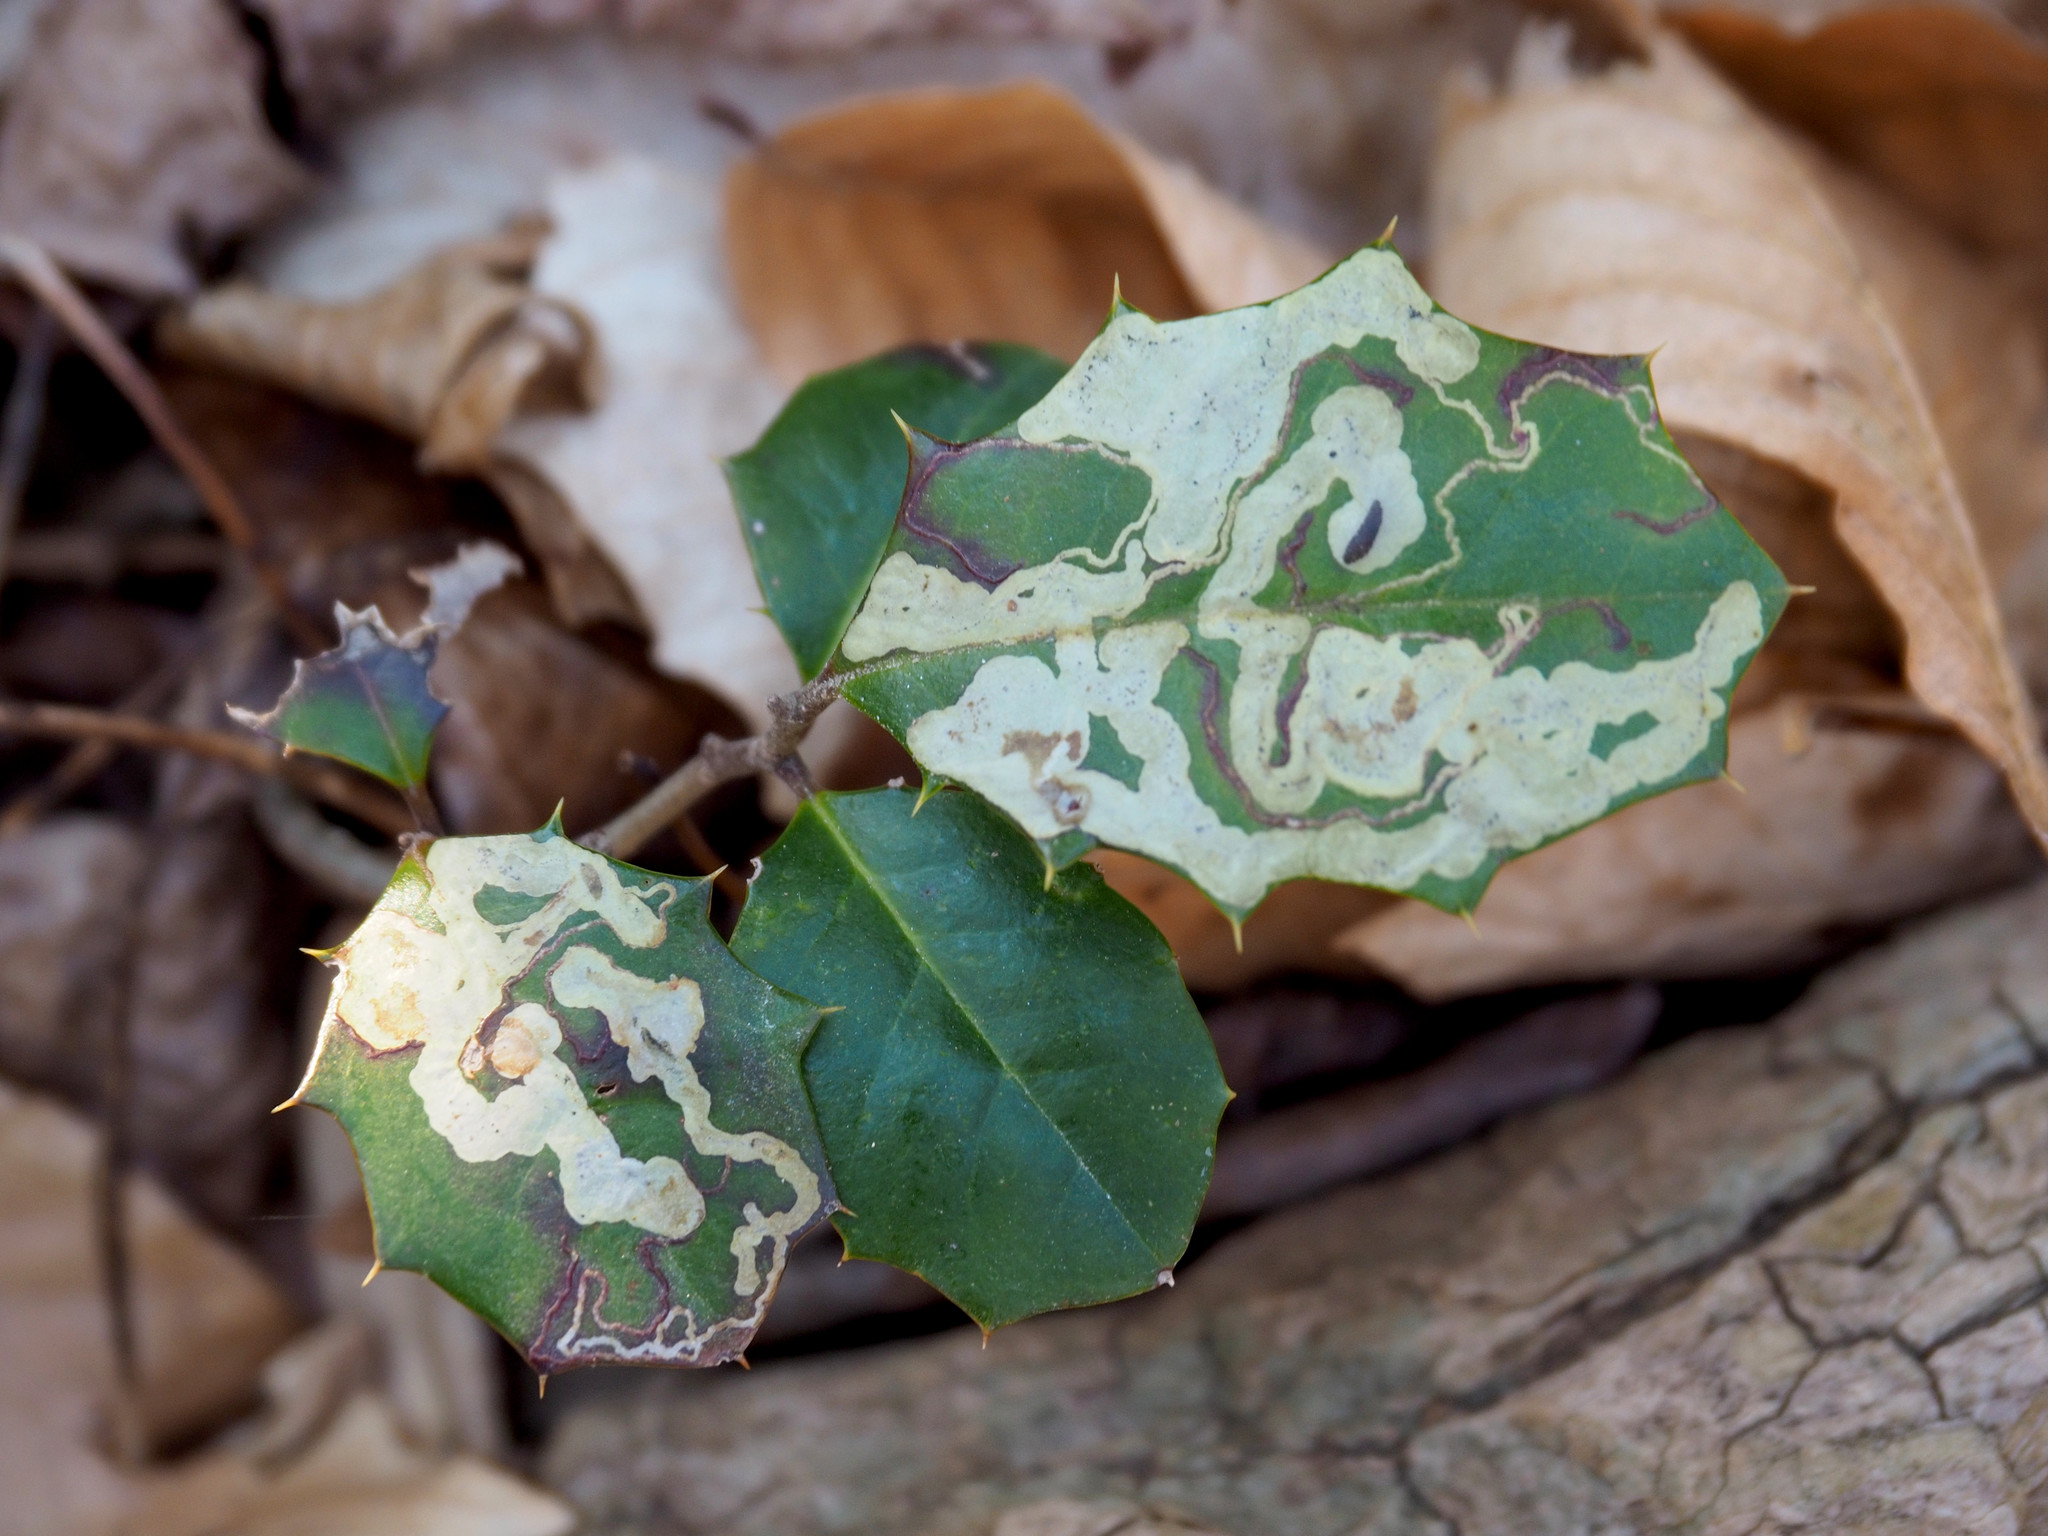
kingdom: Animalia
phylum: Arthropoda
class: Insecta
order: Diptera
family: Agromyzidae
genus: Phytomyza
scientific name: Phytomyza ilicicola
